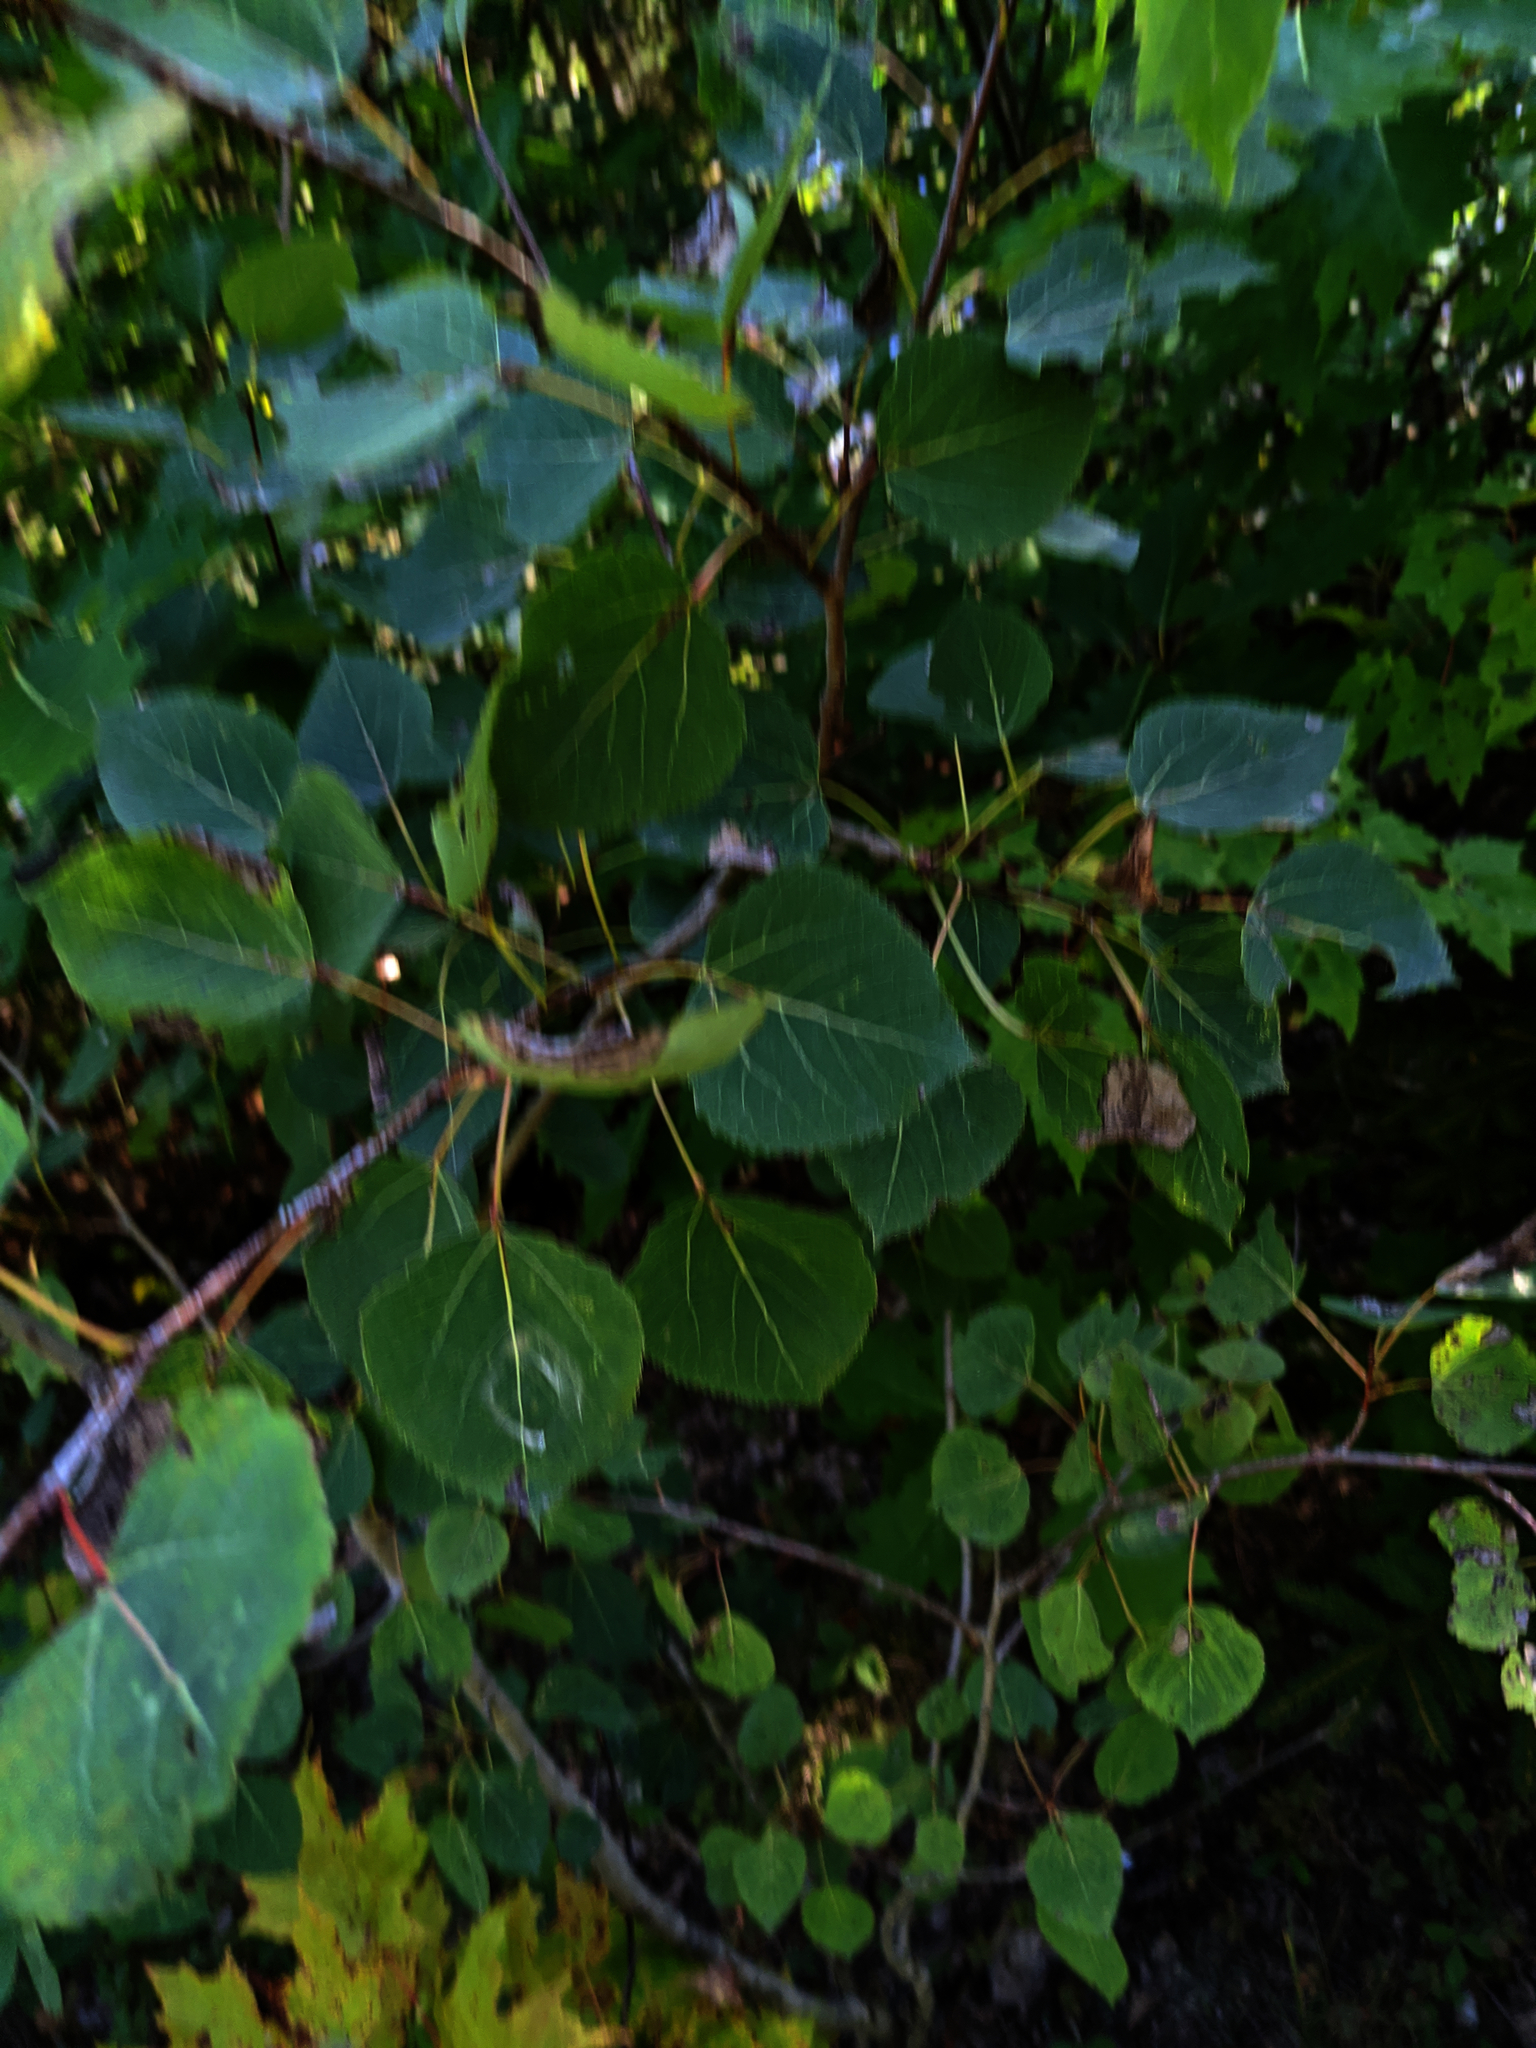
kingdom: Plantae
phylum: Tracheophyta
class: Magnoliopsida
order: Malpighiales
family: Salicaceae
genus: Populus
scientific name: Populus tremuloides
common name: Quaking aspen
